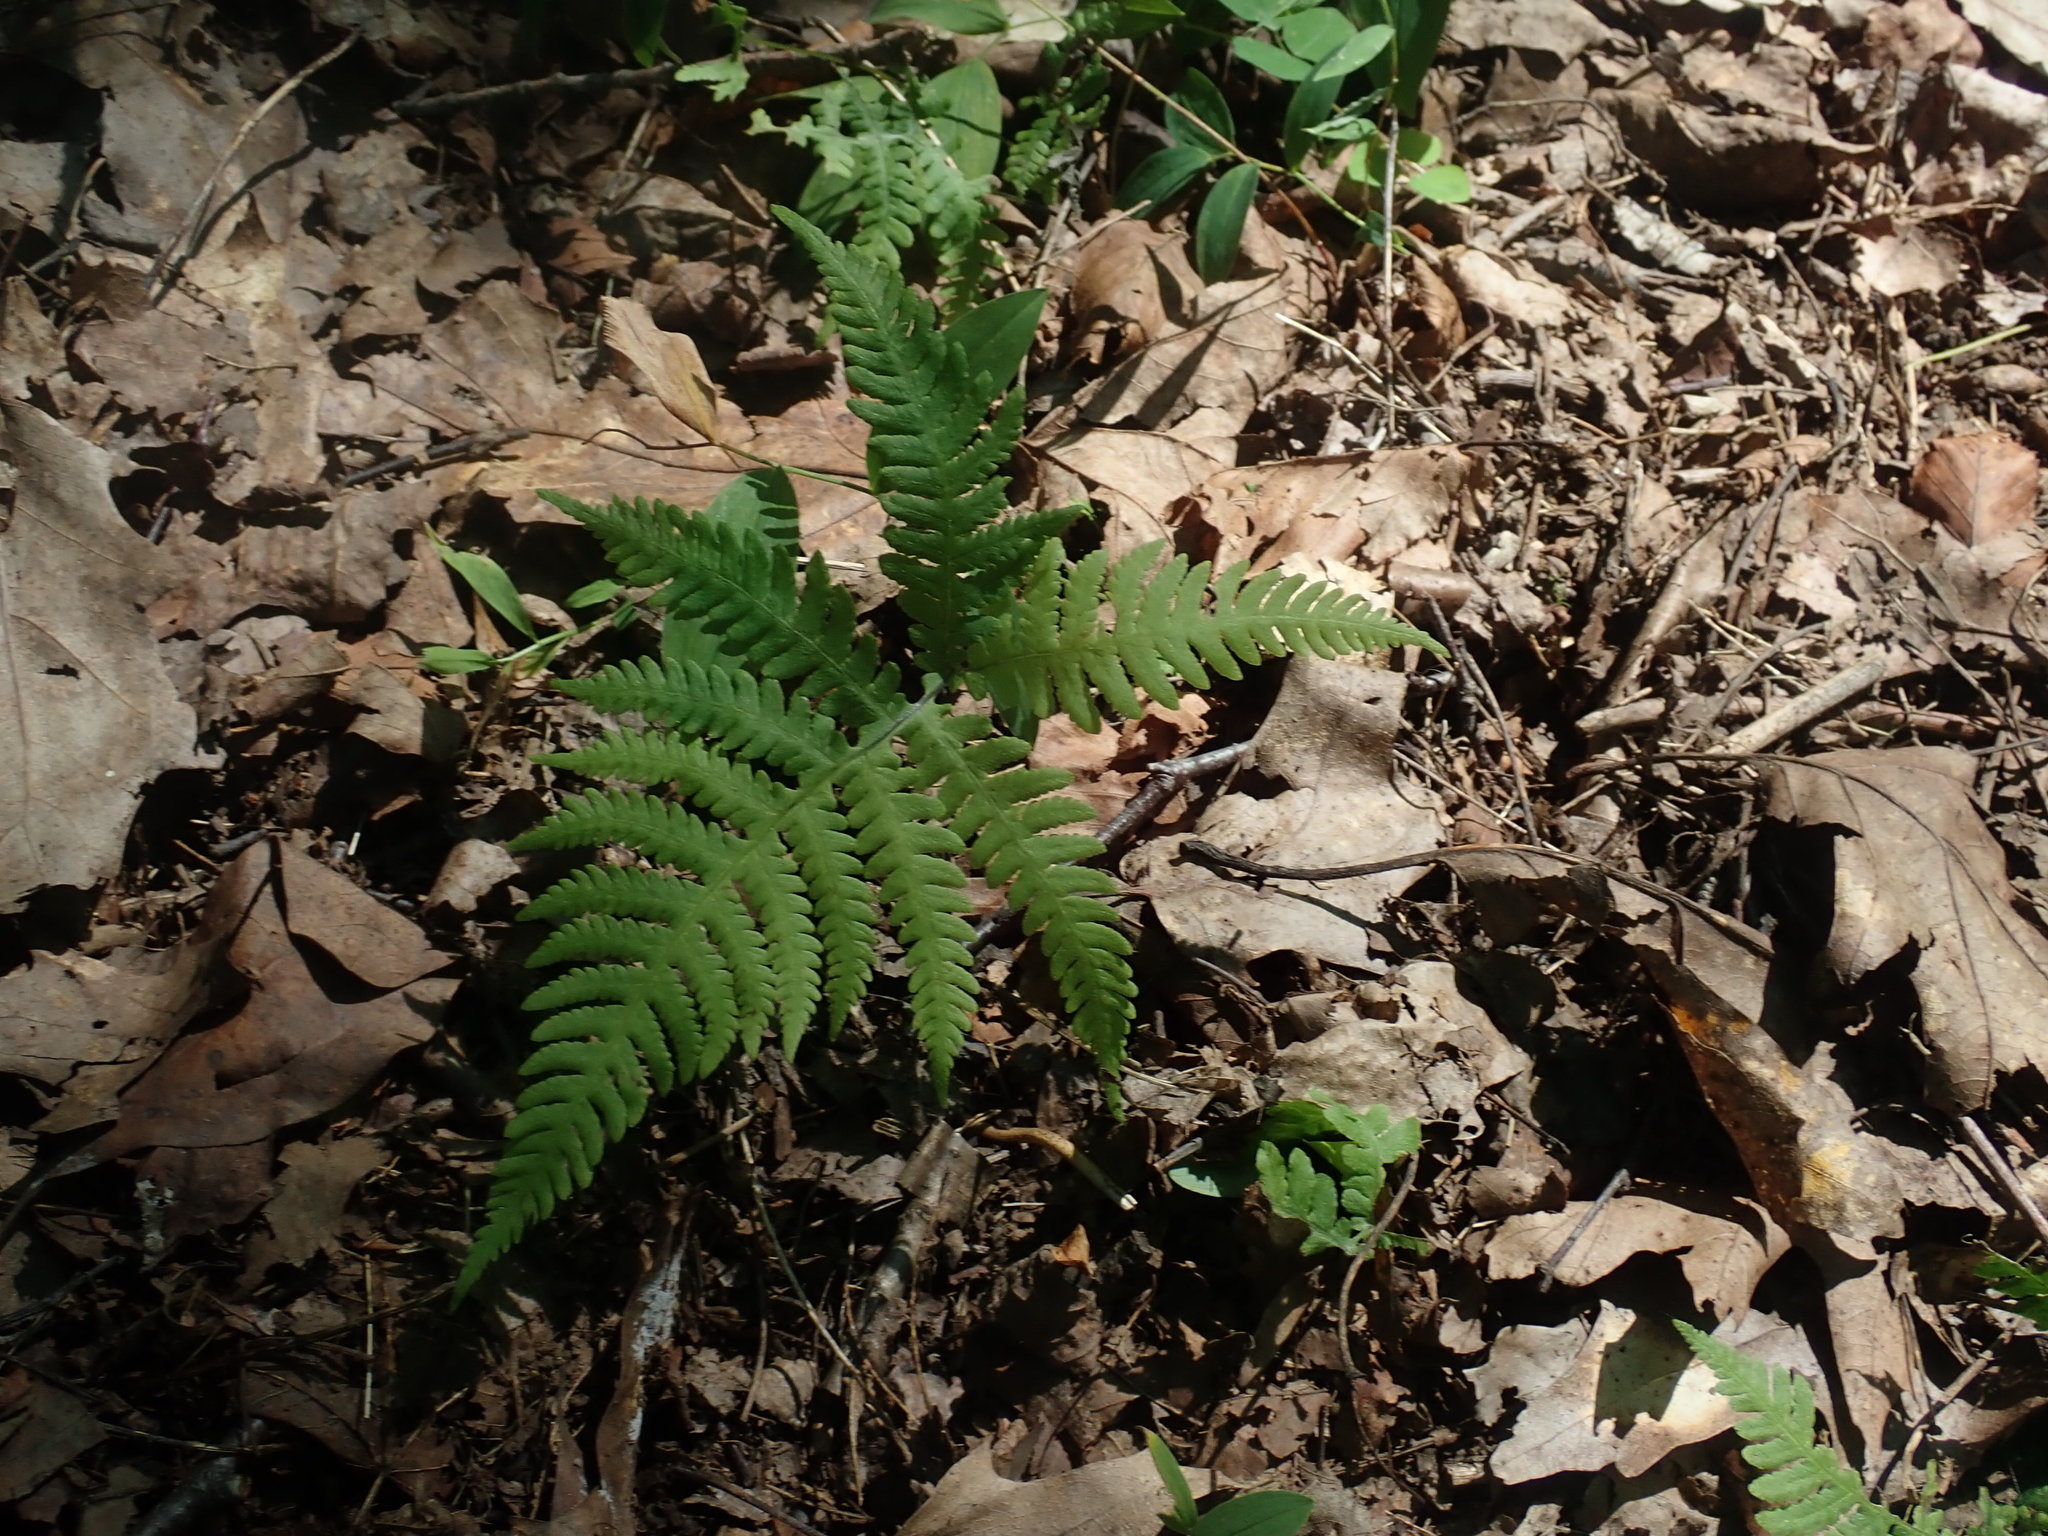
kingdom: Plantae
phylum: Tracheophyta
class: Polypodiopsida
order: Polypodiales
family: Thelypteridaceae
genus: Phegopteris
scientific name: Phegopteris connectilis
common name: Beech fern
